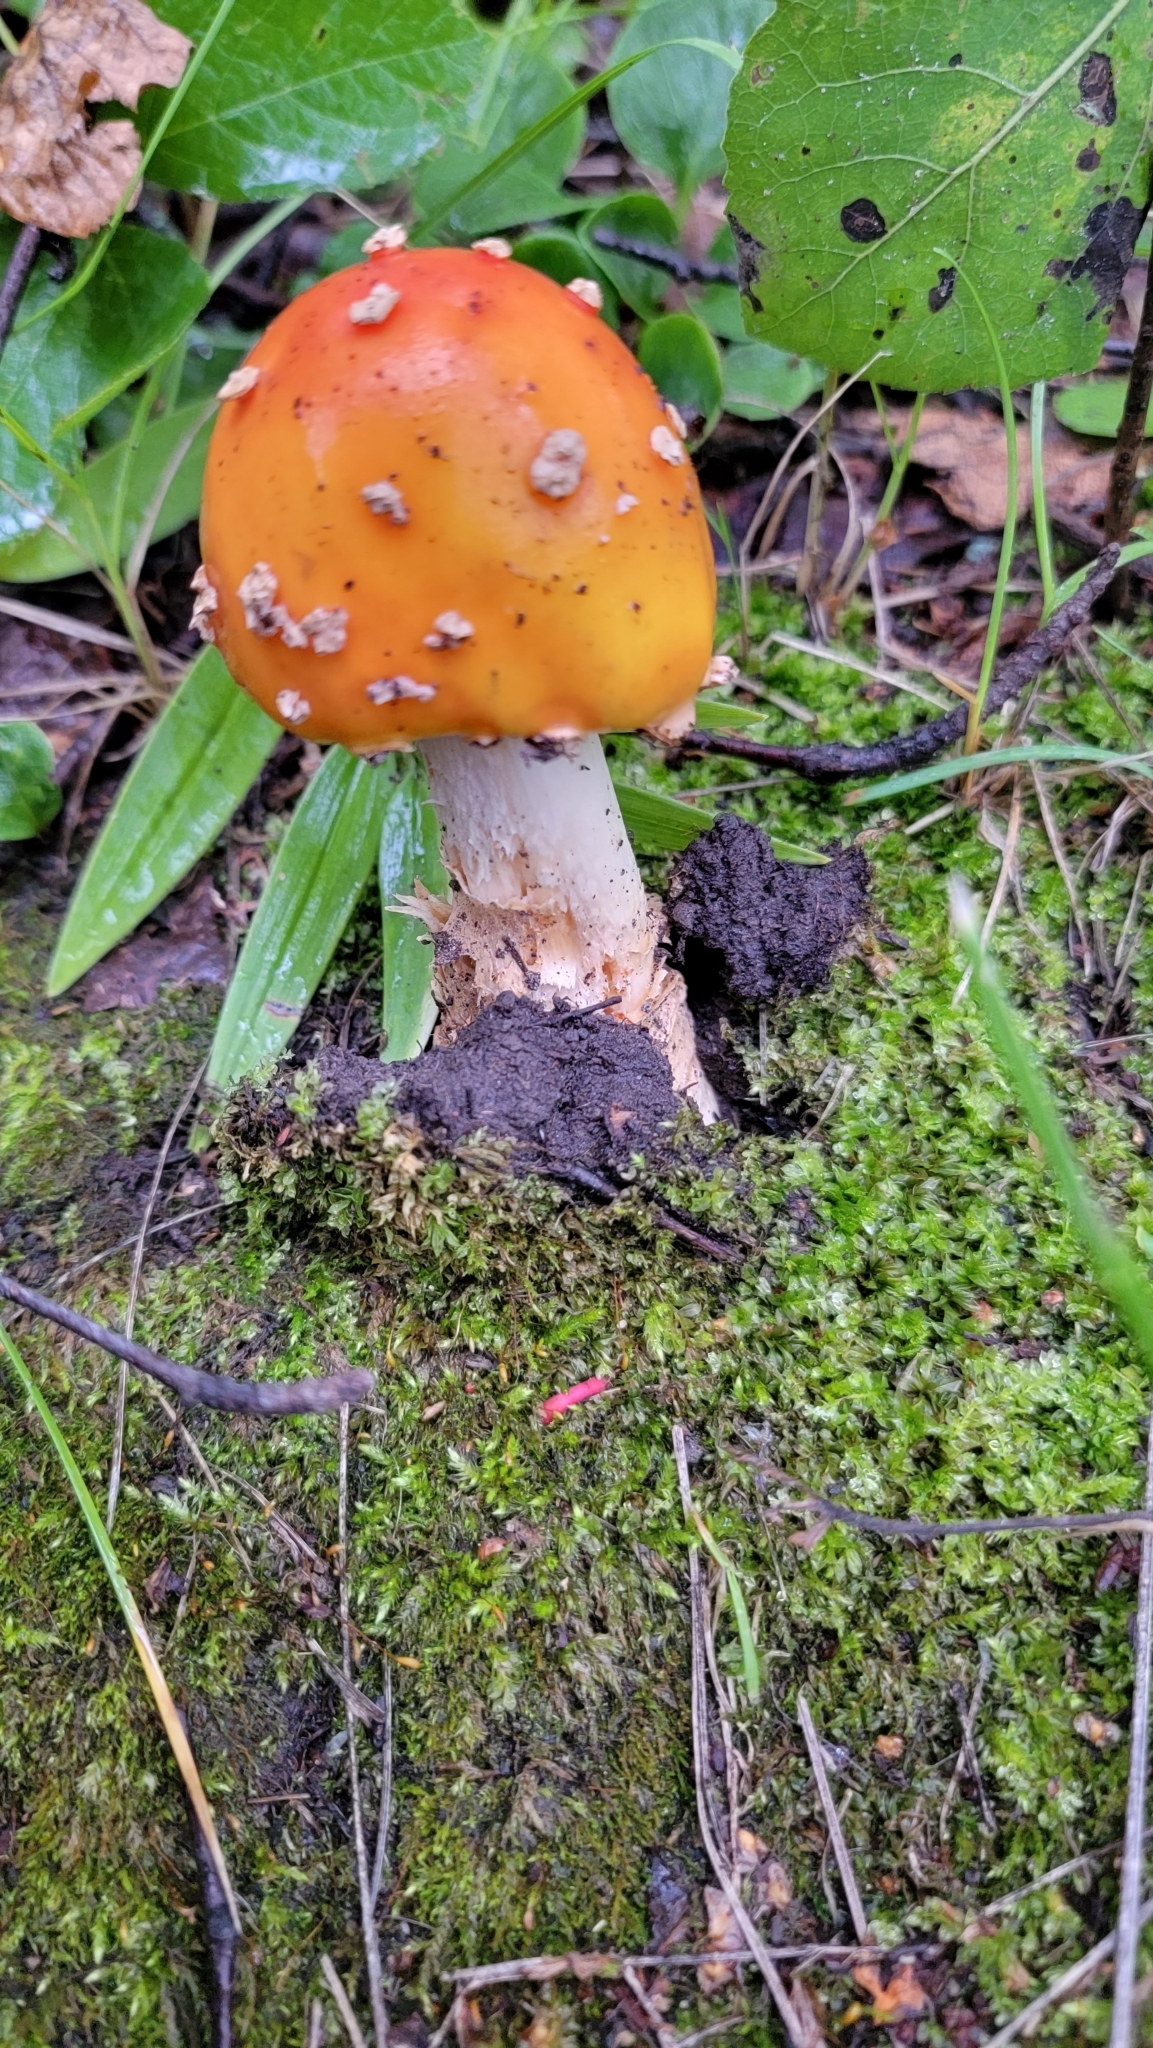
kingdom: Fungi
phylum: Basidiomycota
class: Agaricomycetes
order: Agaricales
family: Amanitaceae
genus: Amanita
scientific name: Amanita muscaria
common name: Fly agaric
